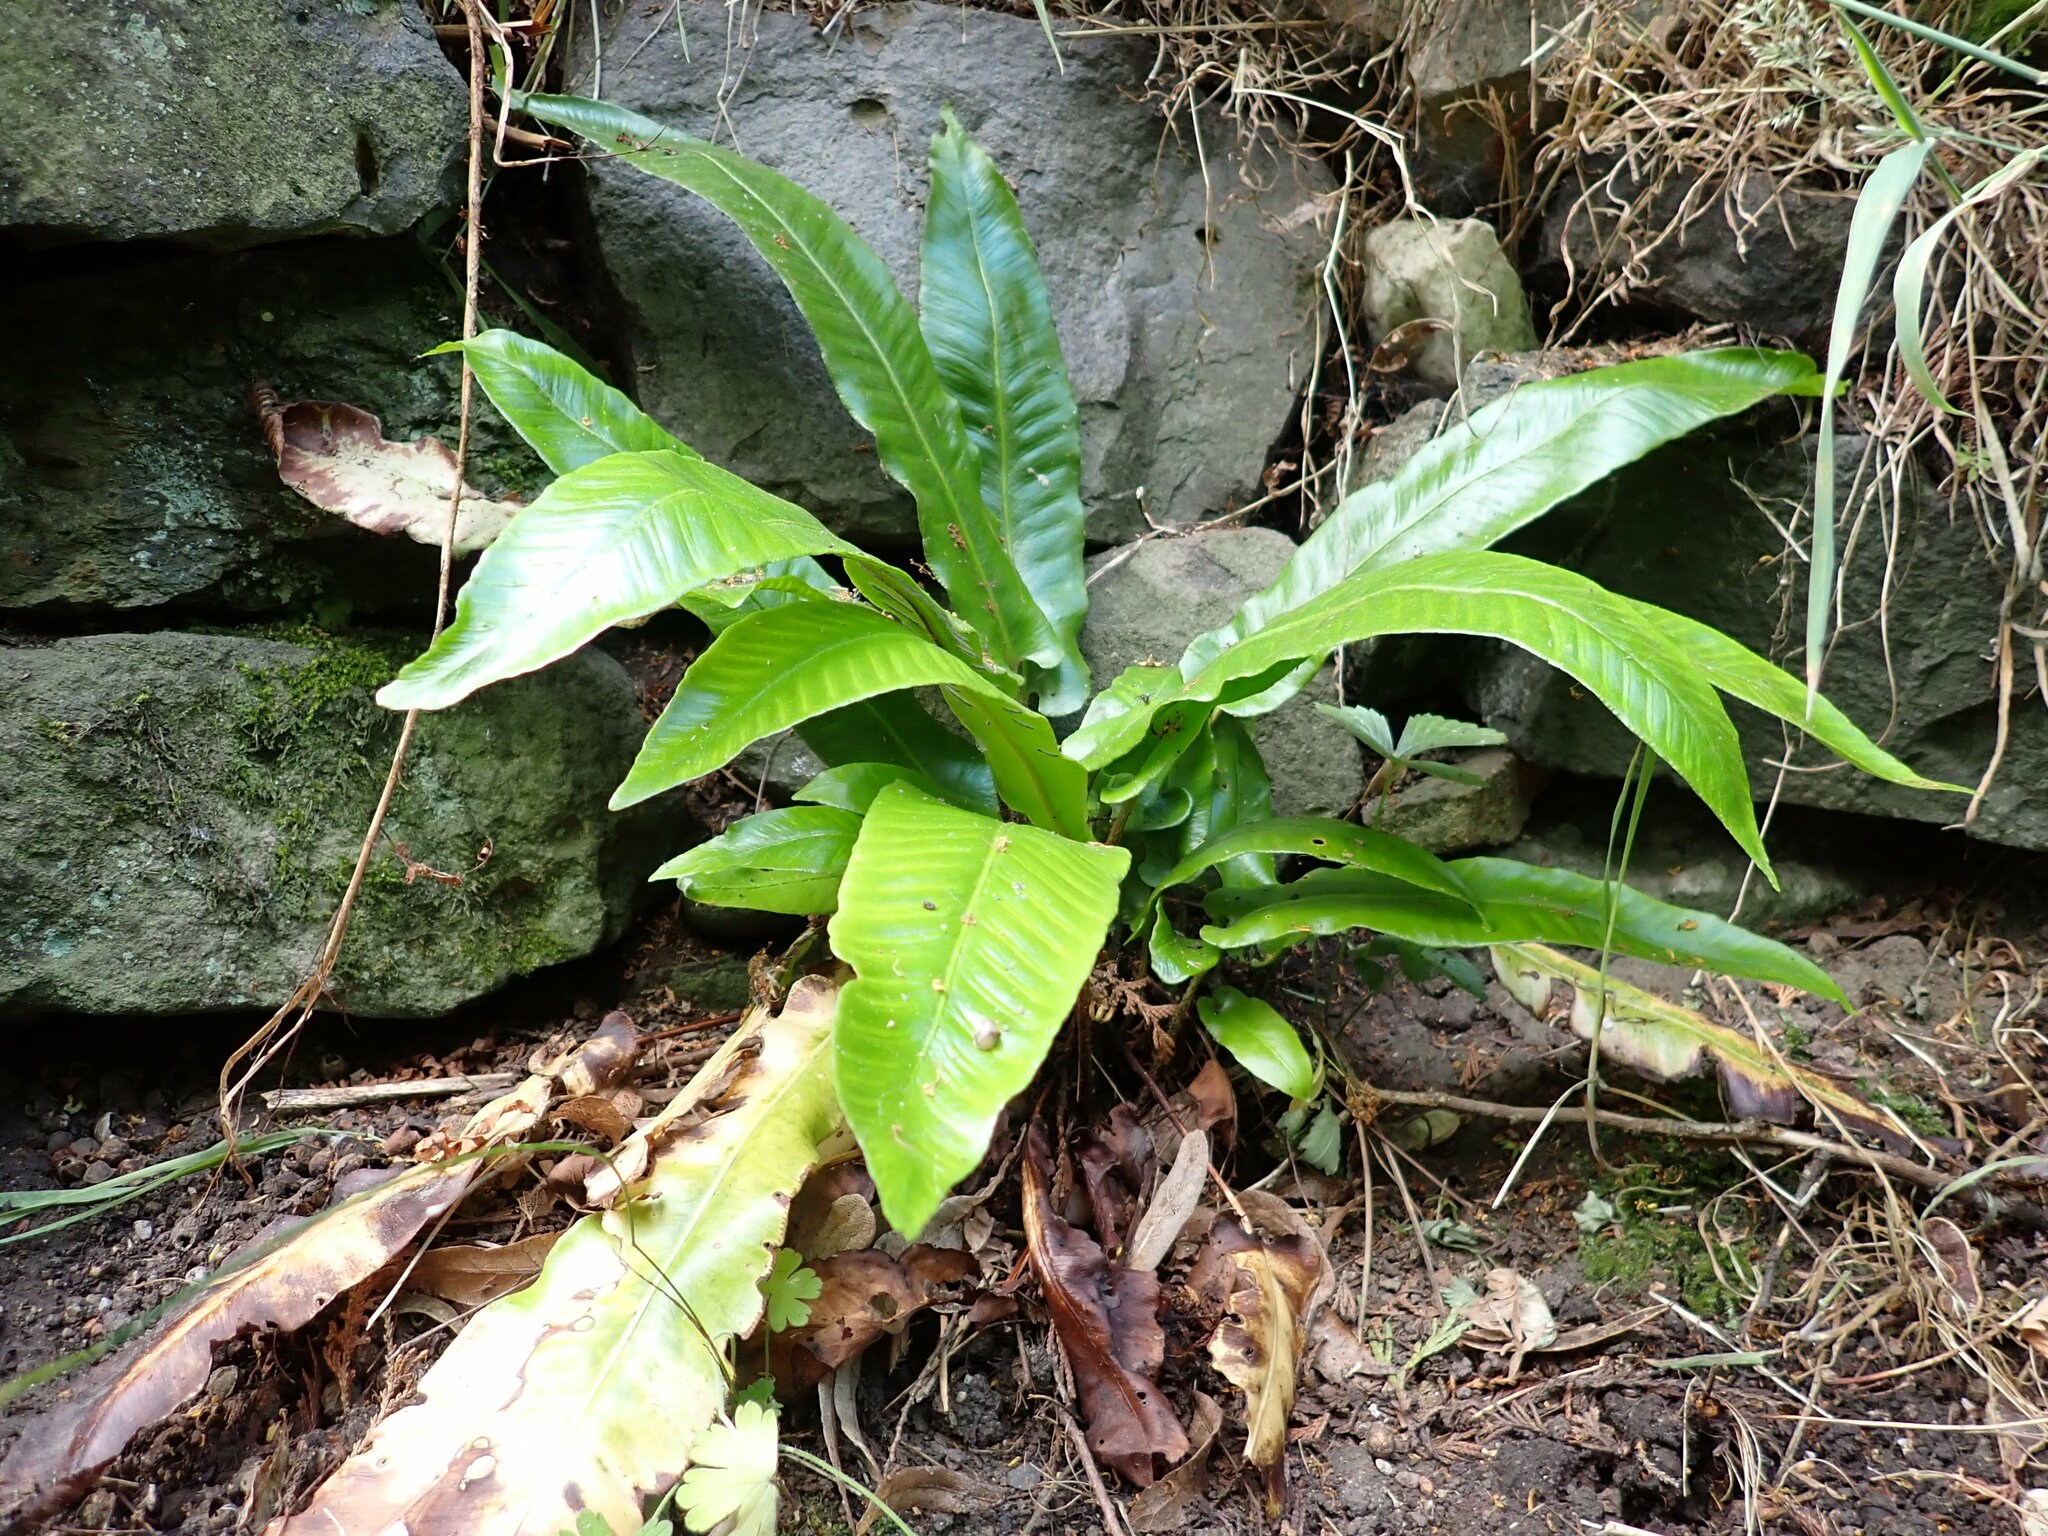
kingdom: Plantae
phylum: Tracheophyta
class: Polypodiopsida
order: Polypodiales
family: Aspleniaceae
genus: Asplenium
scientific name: Asplenium scolopendrium
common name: Hart's-tongue fern
